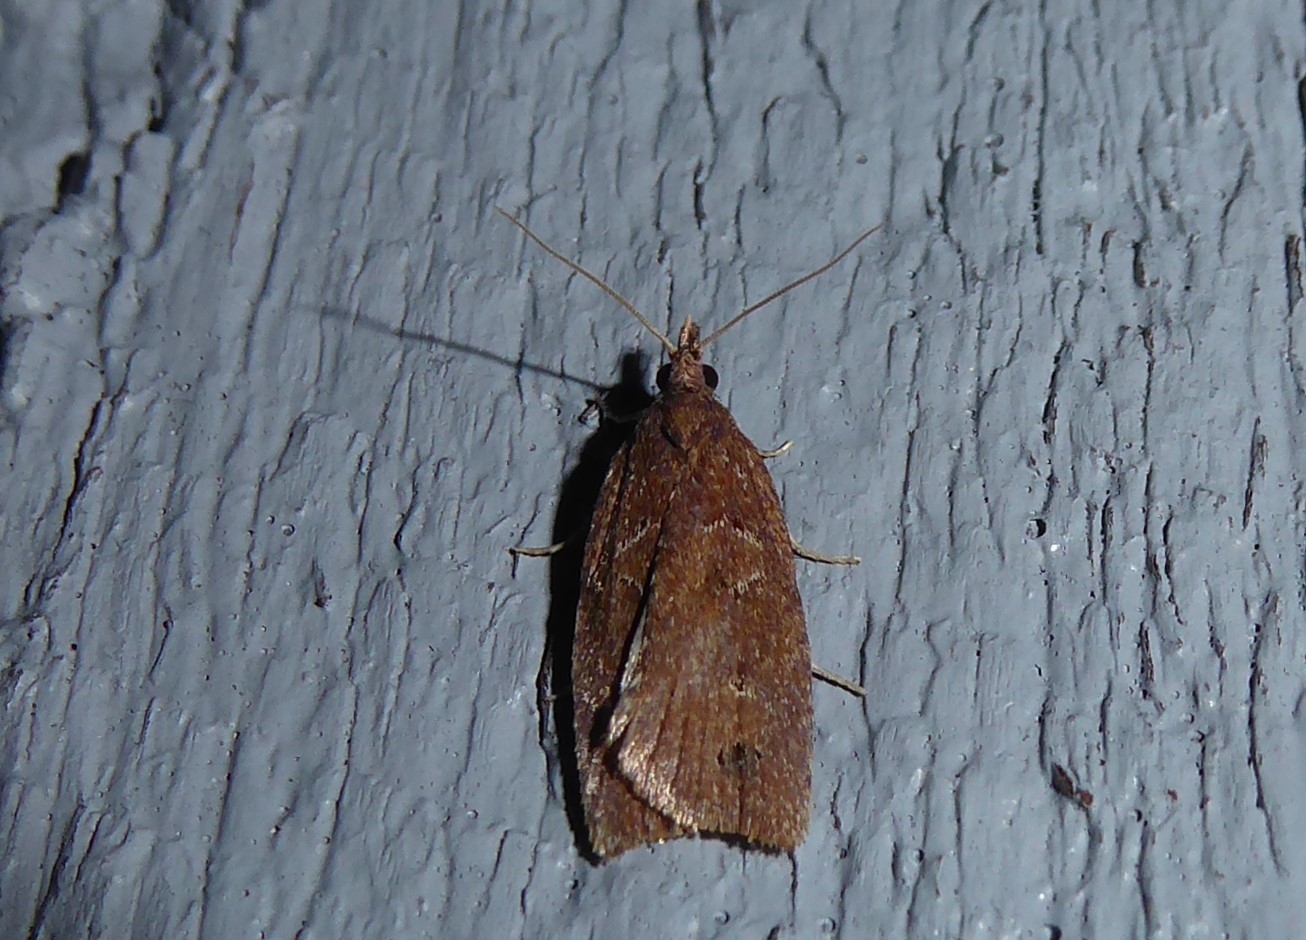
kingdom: Animalia
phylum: Arthropoda
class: Insecta
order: Lepidoptera
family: Tortricidae
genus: Planotortrix
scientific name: Planotortrix notophaea
